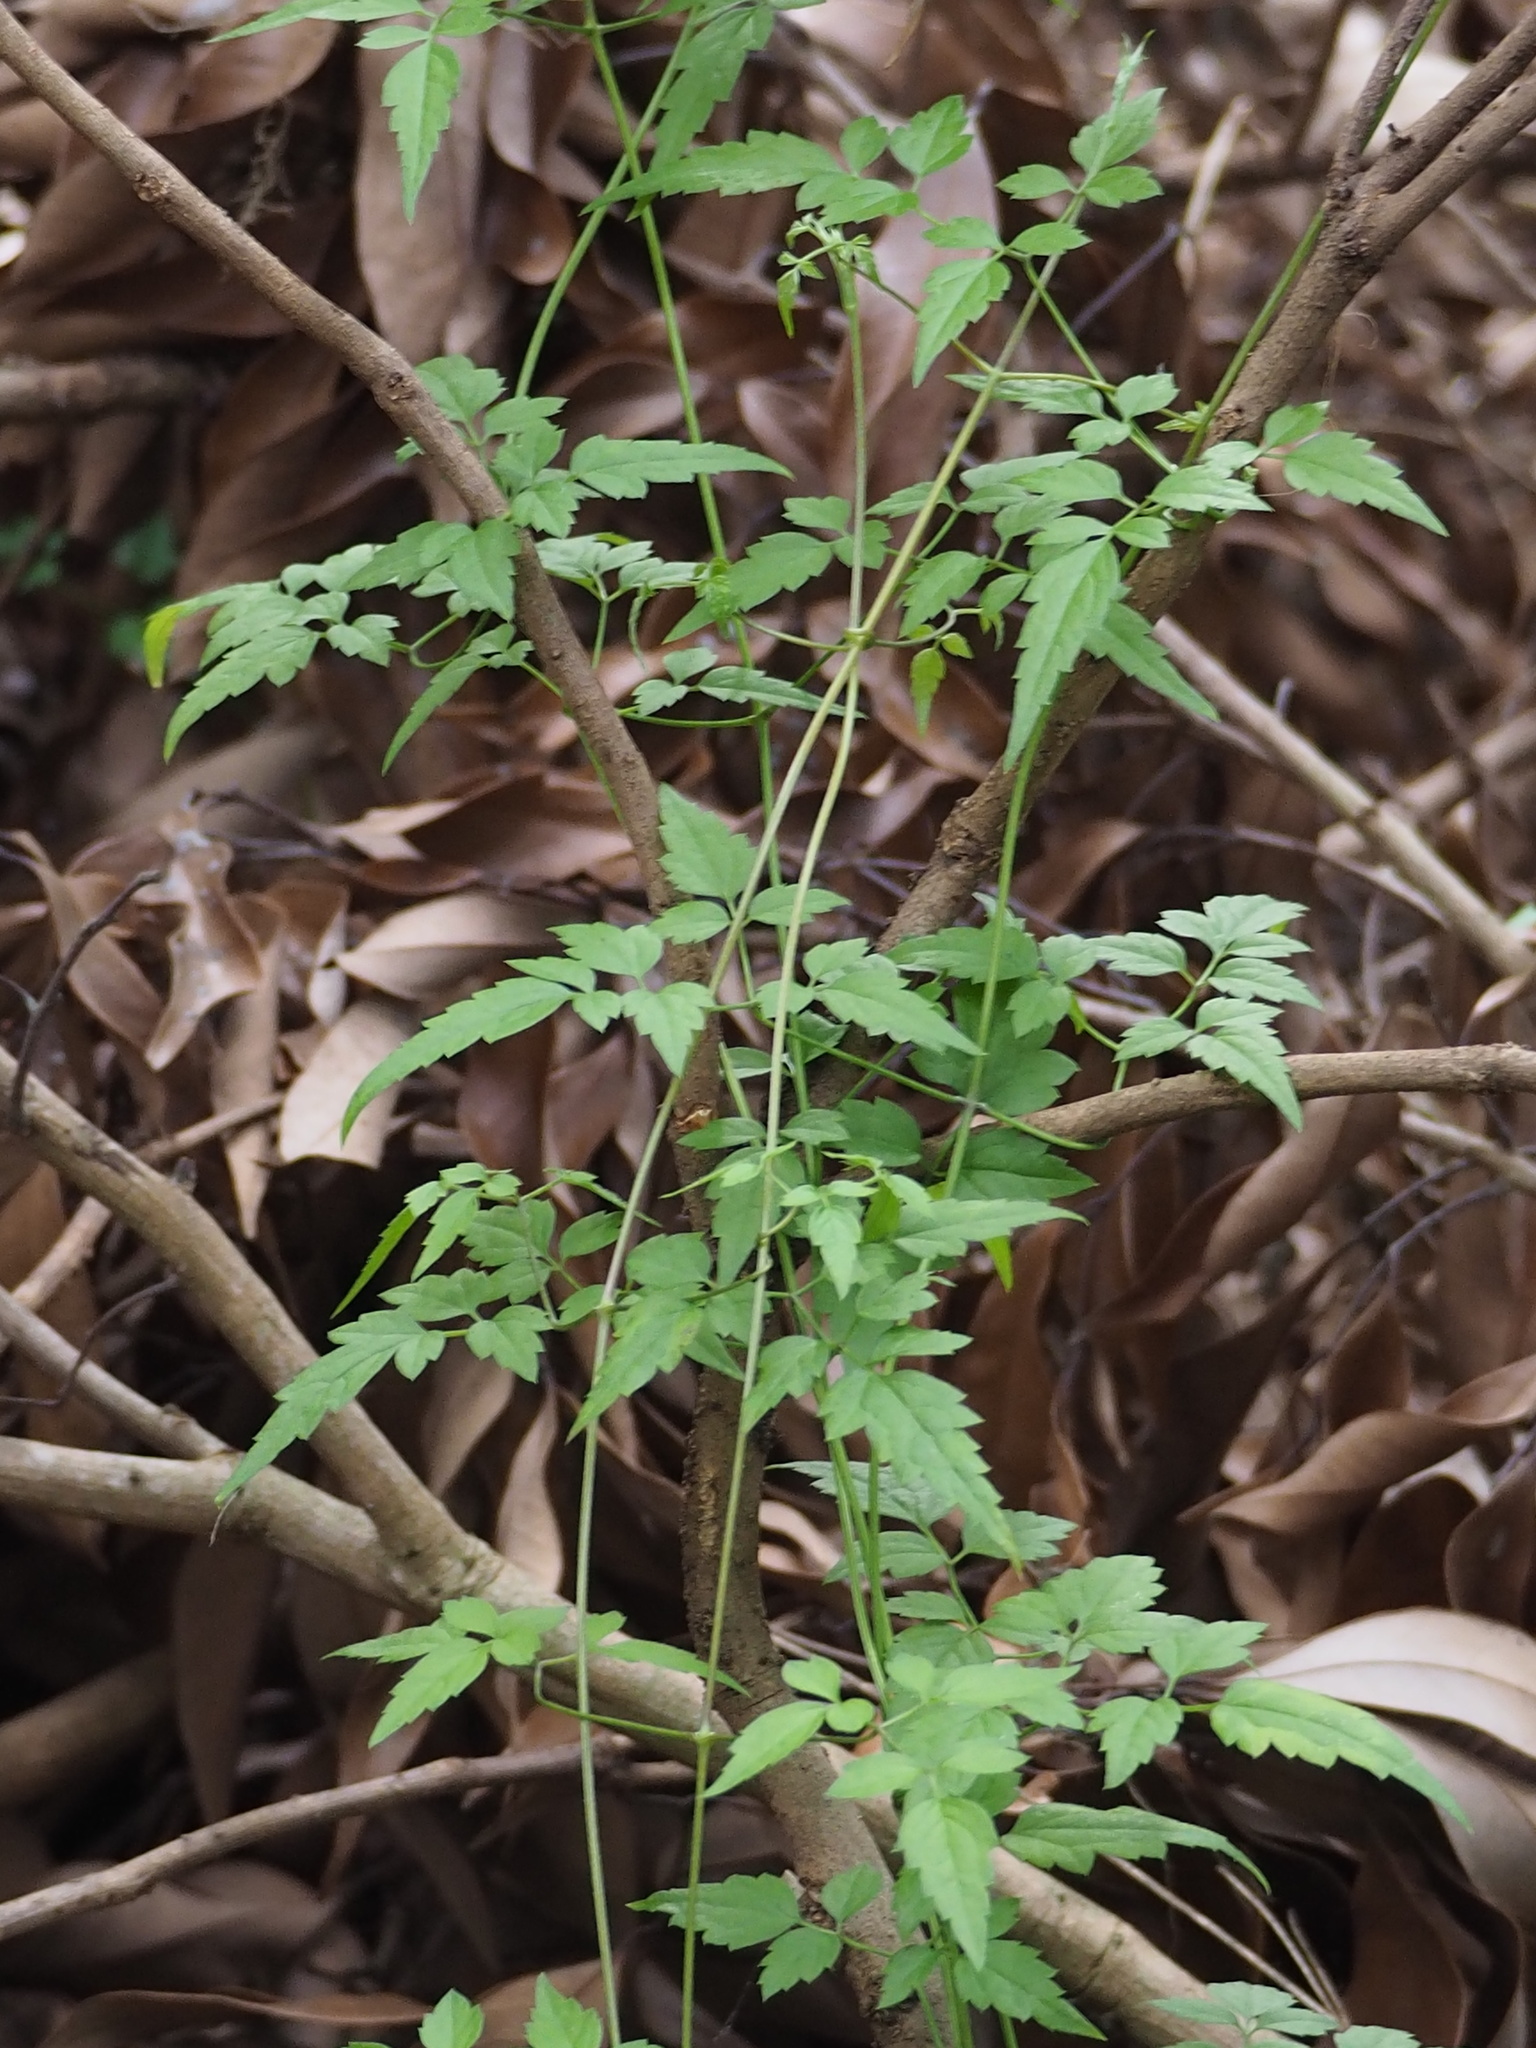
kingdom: Plantae
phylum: Tracheophyta
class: Magnoliopsida
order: Ranunculales
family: Ranunculaceae
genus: Clematis
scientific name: Clematis grata
